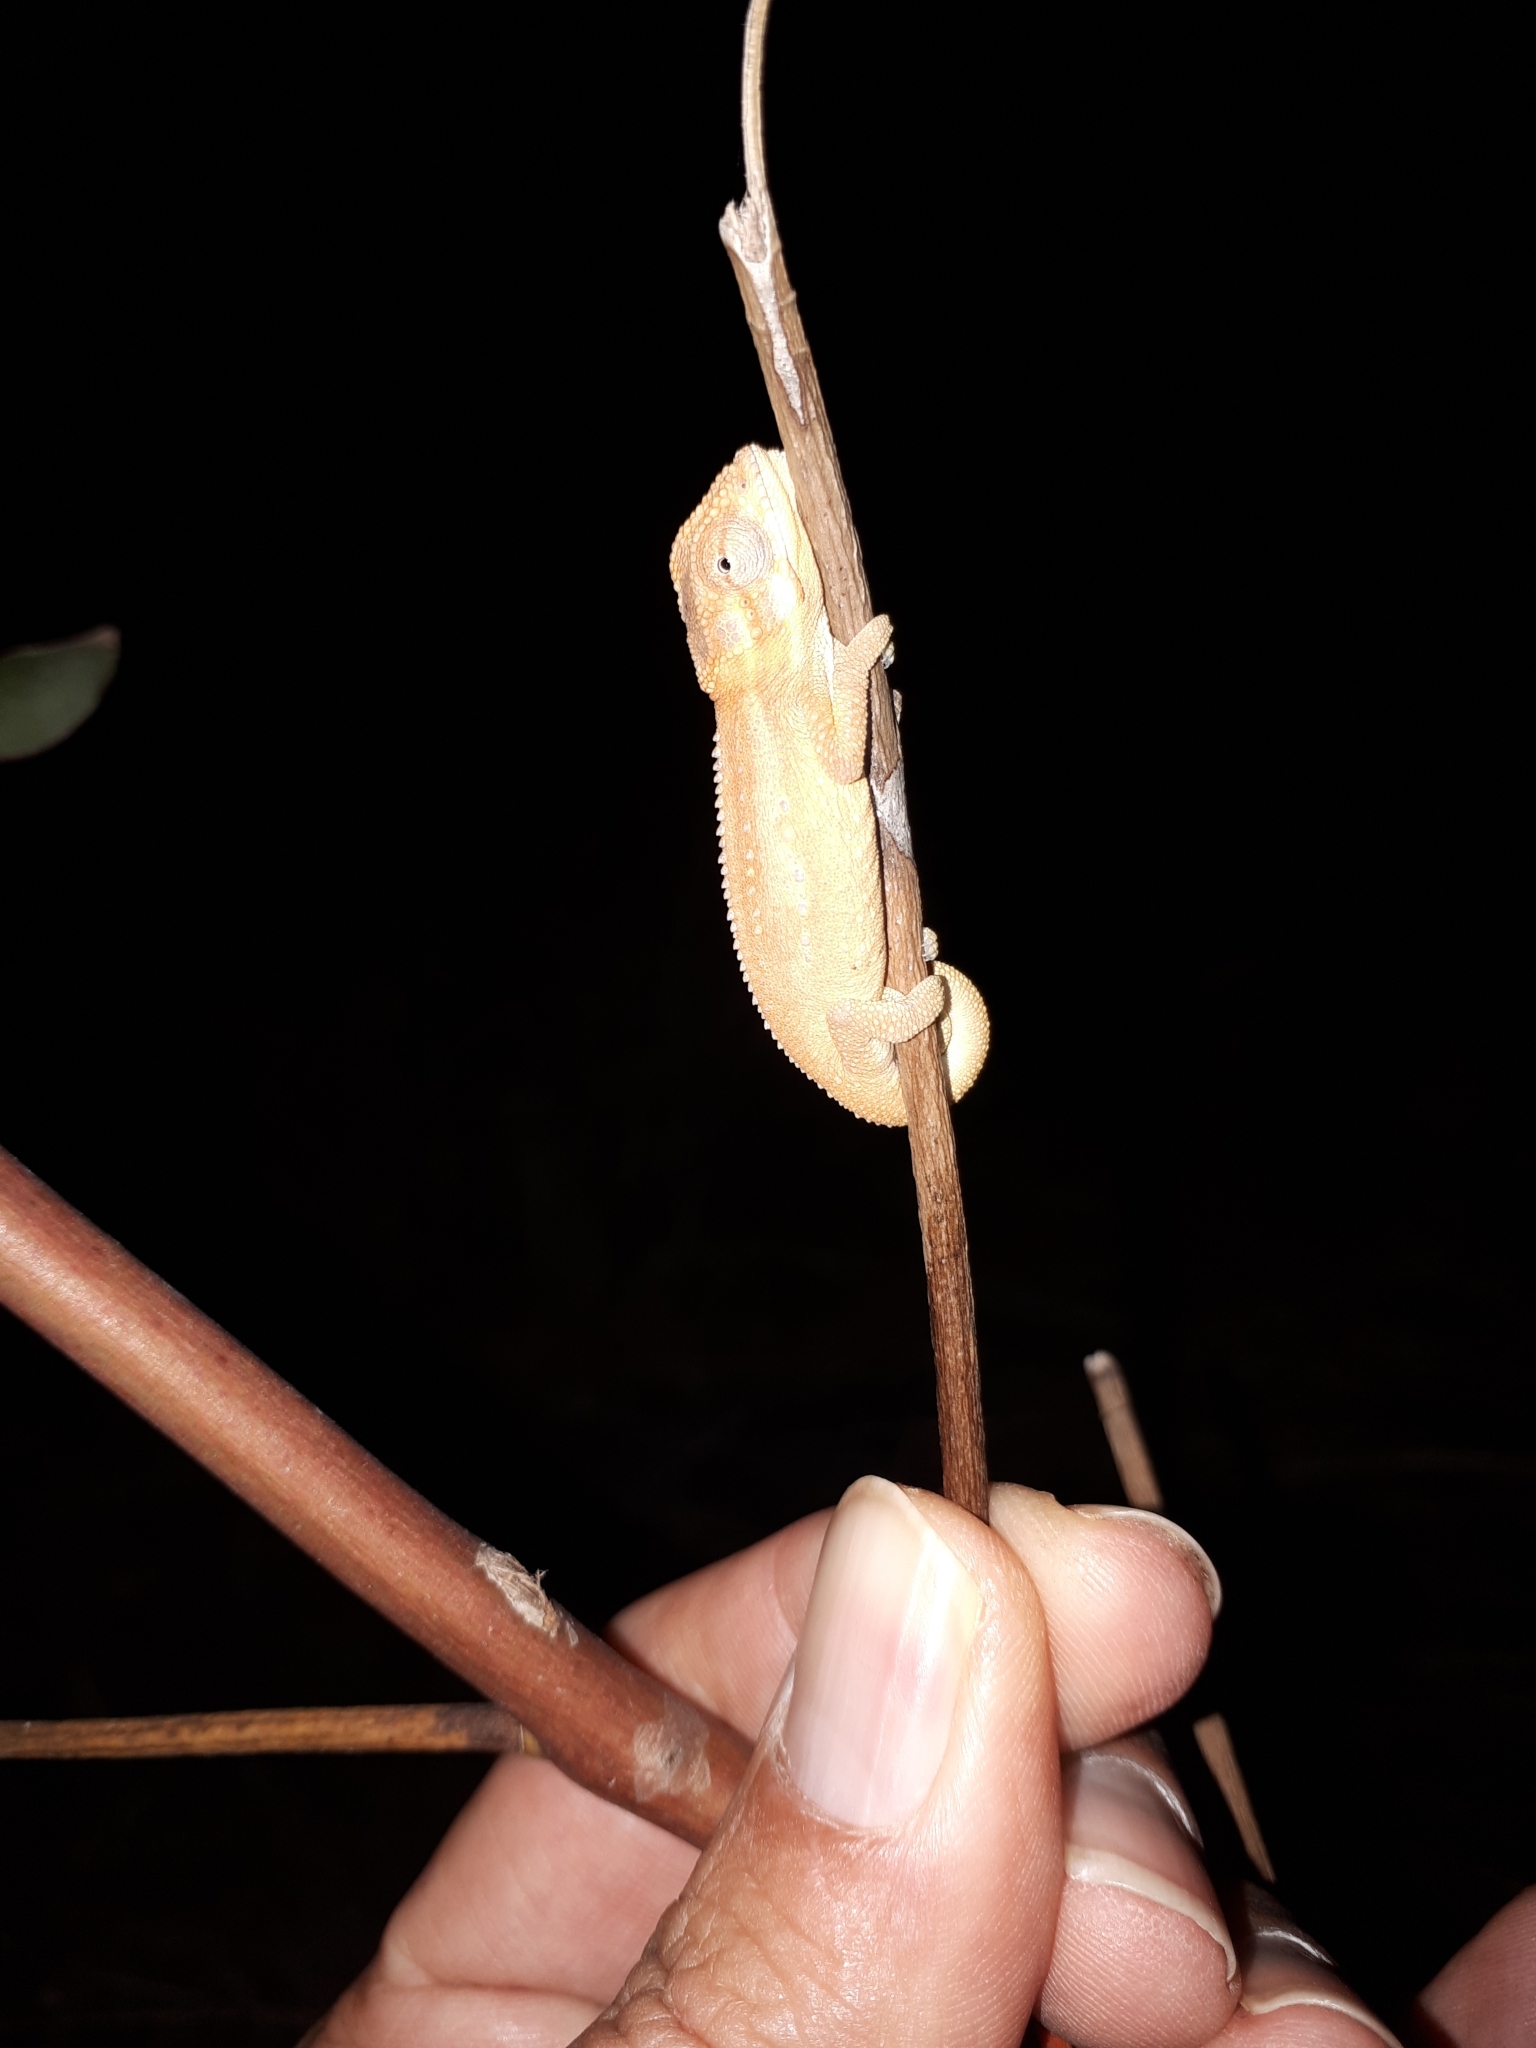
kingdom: Animalia
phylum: Chordata
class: Squamata
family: Chamaeleonidae
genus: Bradypodion
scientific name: Bradypodion pumilum
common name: Cape dwarf chameleon
